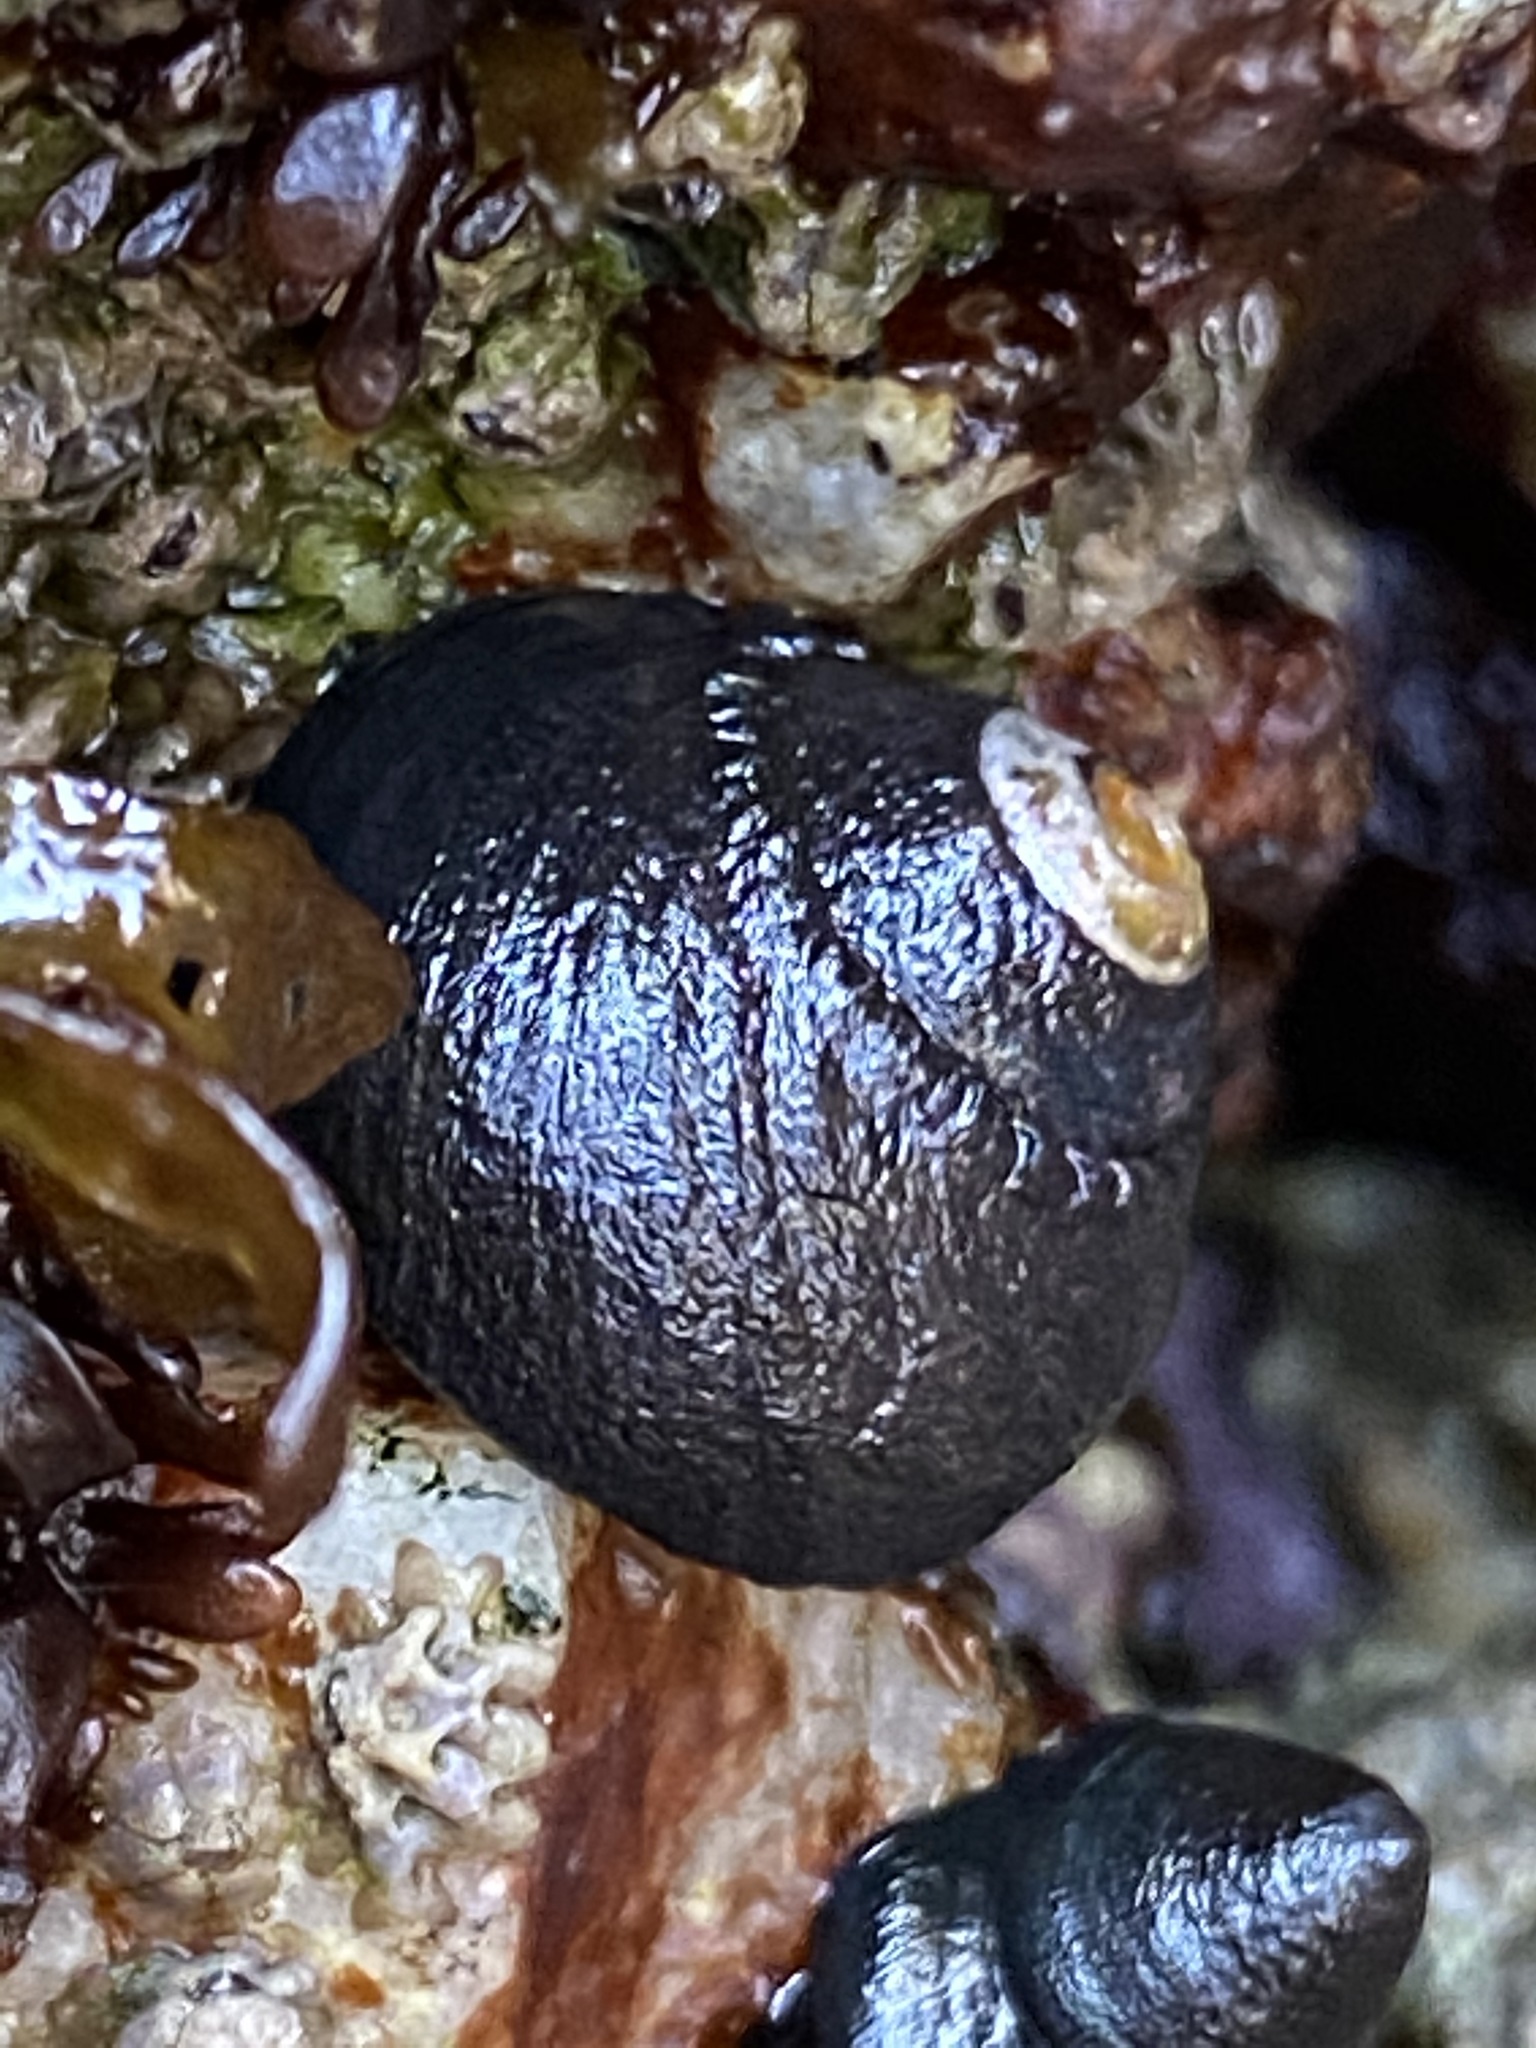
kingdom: Animalia
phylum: Mollusca
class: Gastropoda
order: Trochida
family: Tegulidae
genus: Tegula
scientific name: Tegula funebralis
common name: Black tegula
